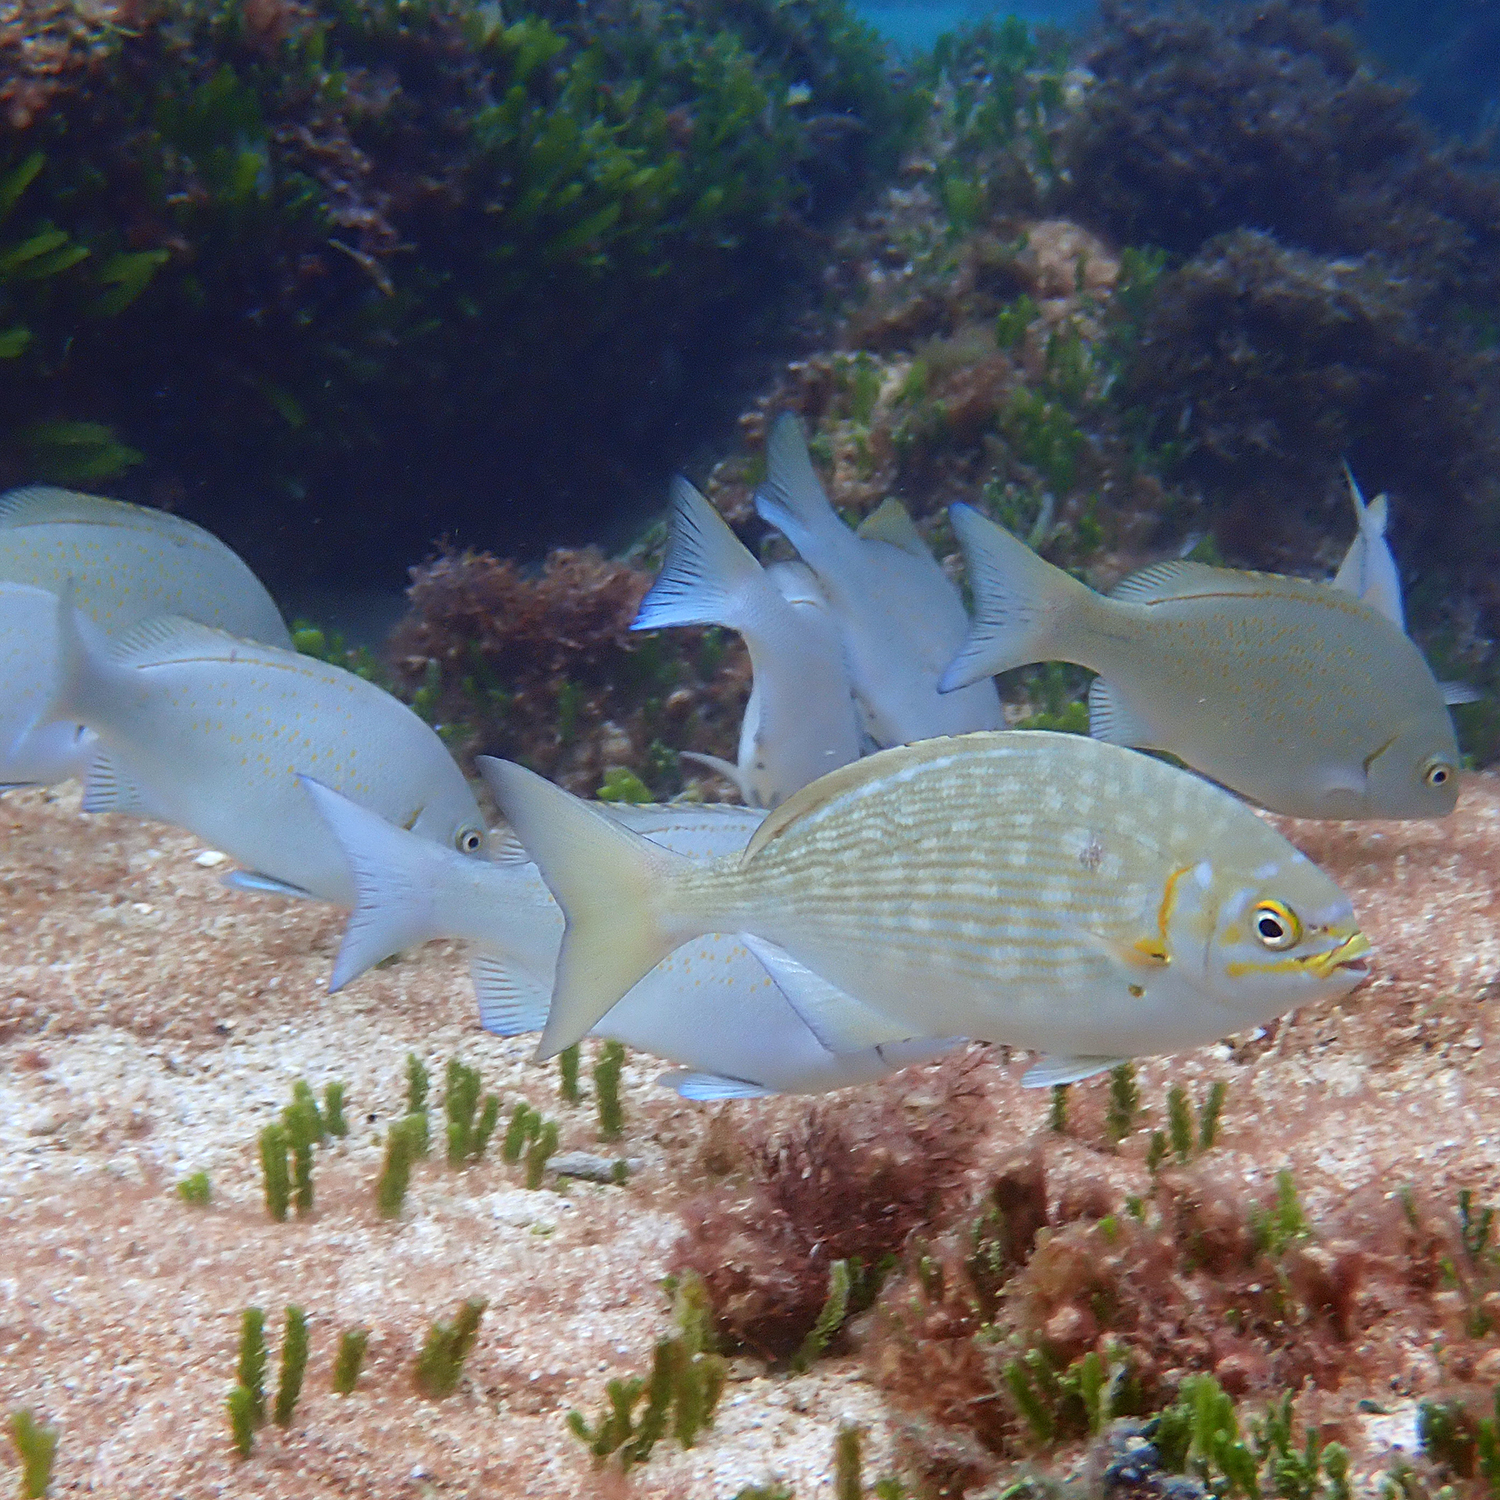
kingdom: Animalia
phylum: Chordata
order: Perciformes
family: Kyphosidae
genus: Kyphosus
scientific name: Kyphosus vaigiensis
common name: Brassy chub
